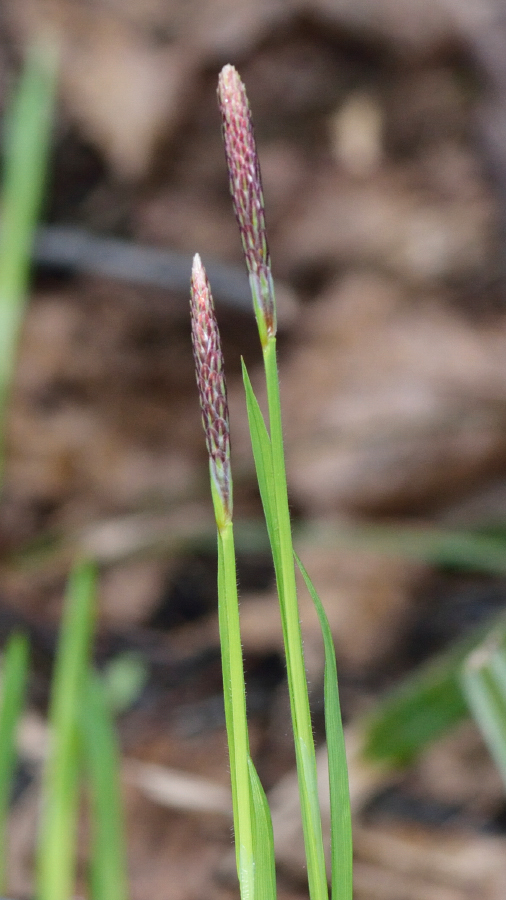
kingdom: Plantae
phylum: Tracheophyta
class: Liliopsida
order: Poales
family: Cyperaceae
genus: Carex
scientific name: Carex pilosa
